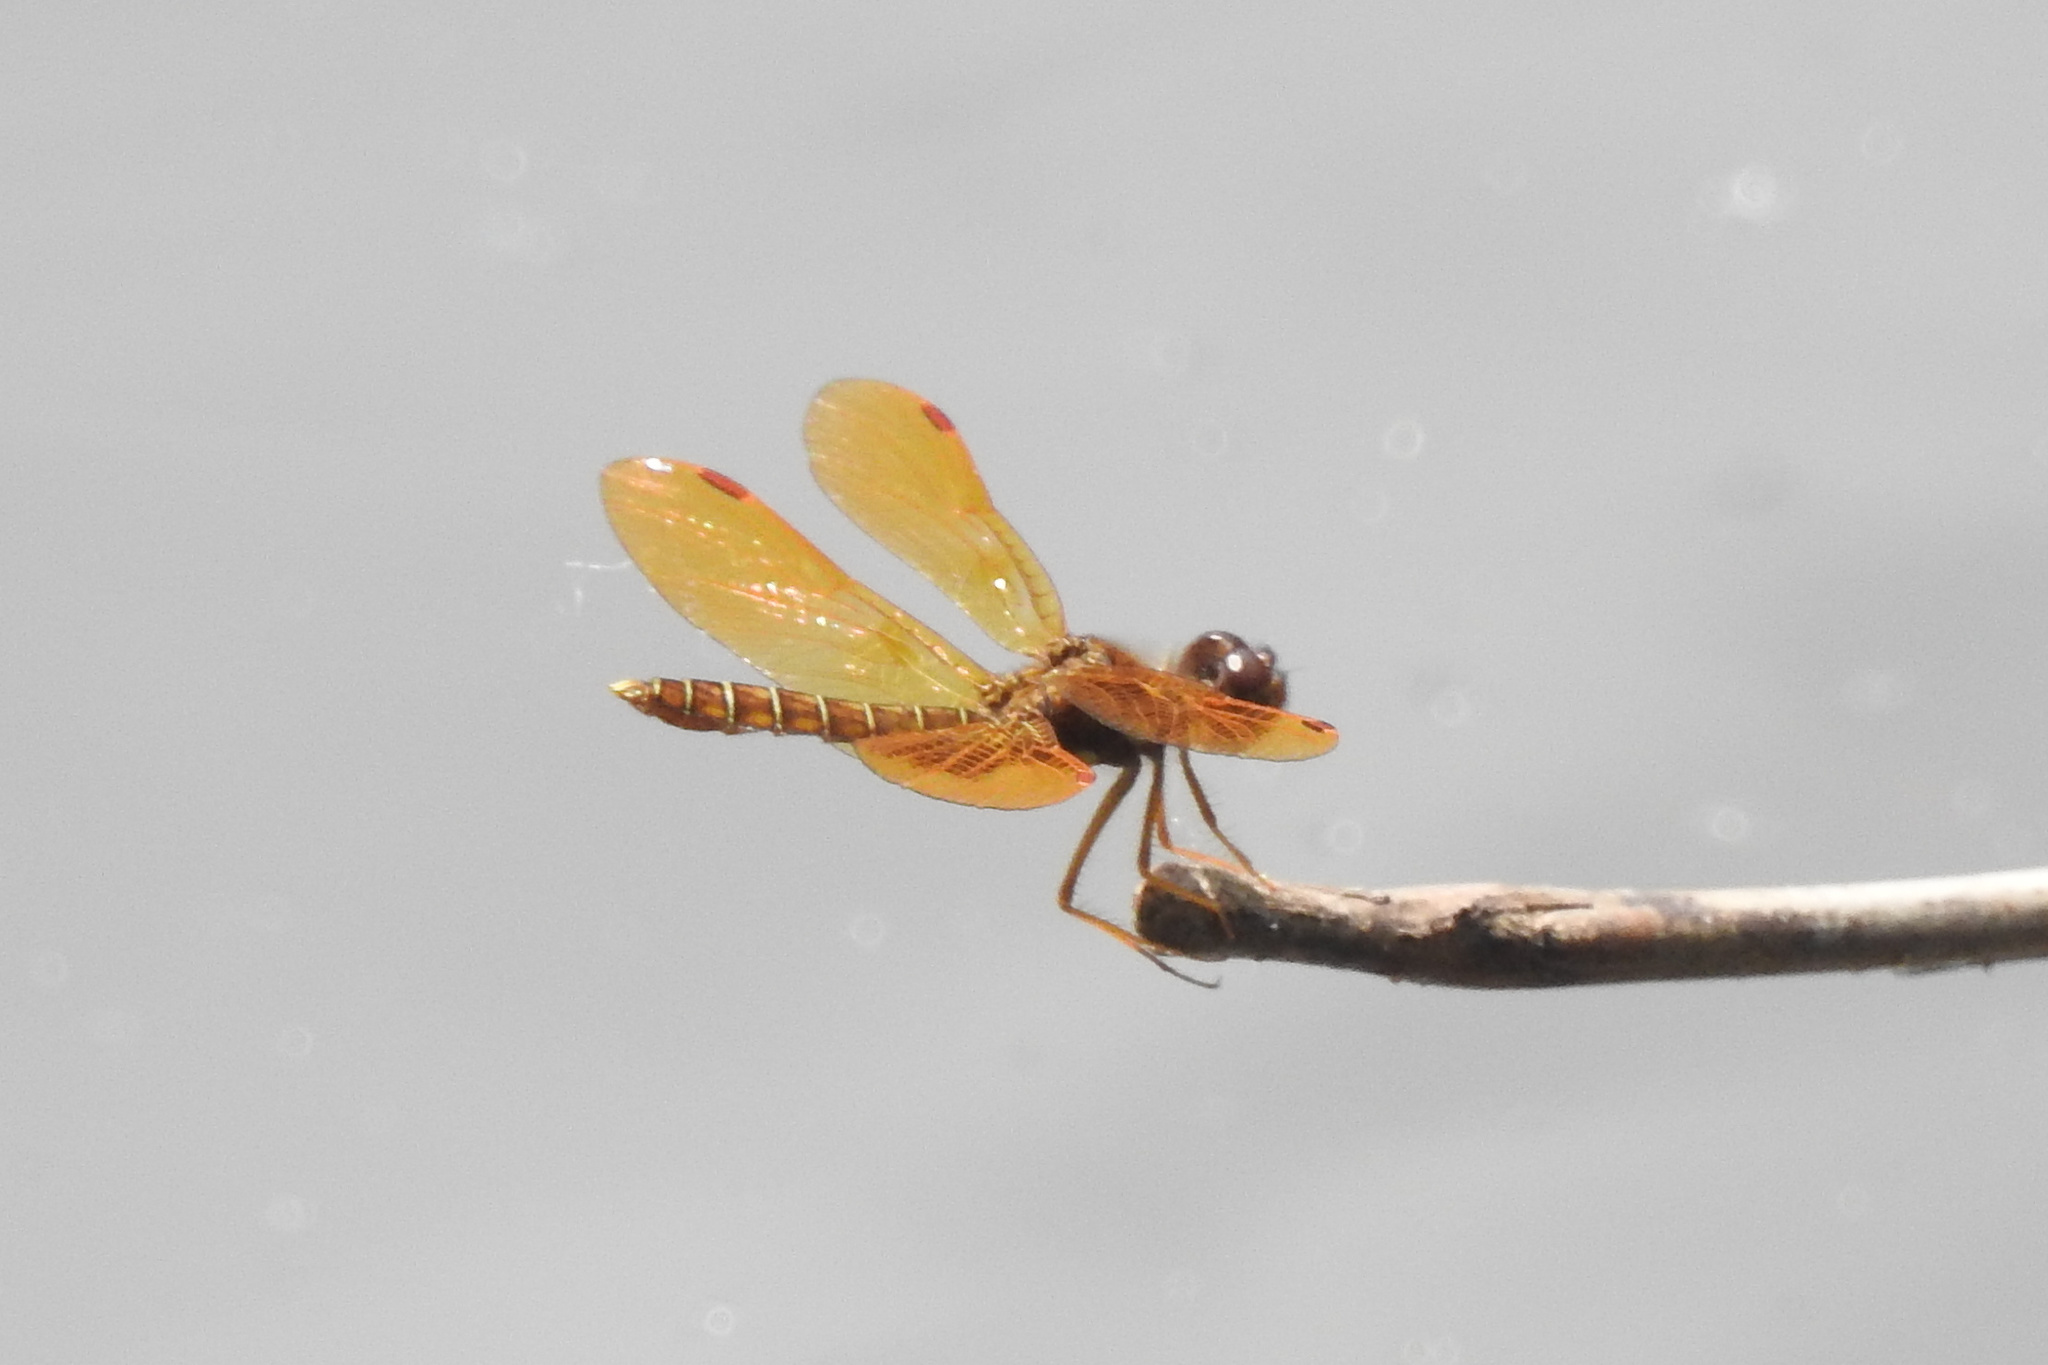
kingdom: Animalia
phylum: Arthropoda
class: Insecta
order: Odonata
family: Libellulidae
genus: Perithemis
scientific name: Perithemis tenera
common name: Eastern amberwing
